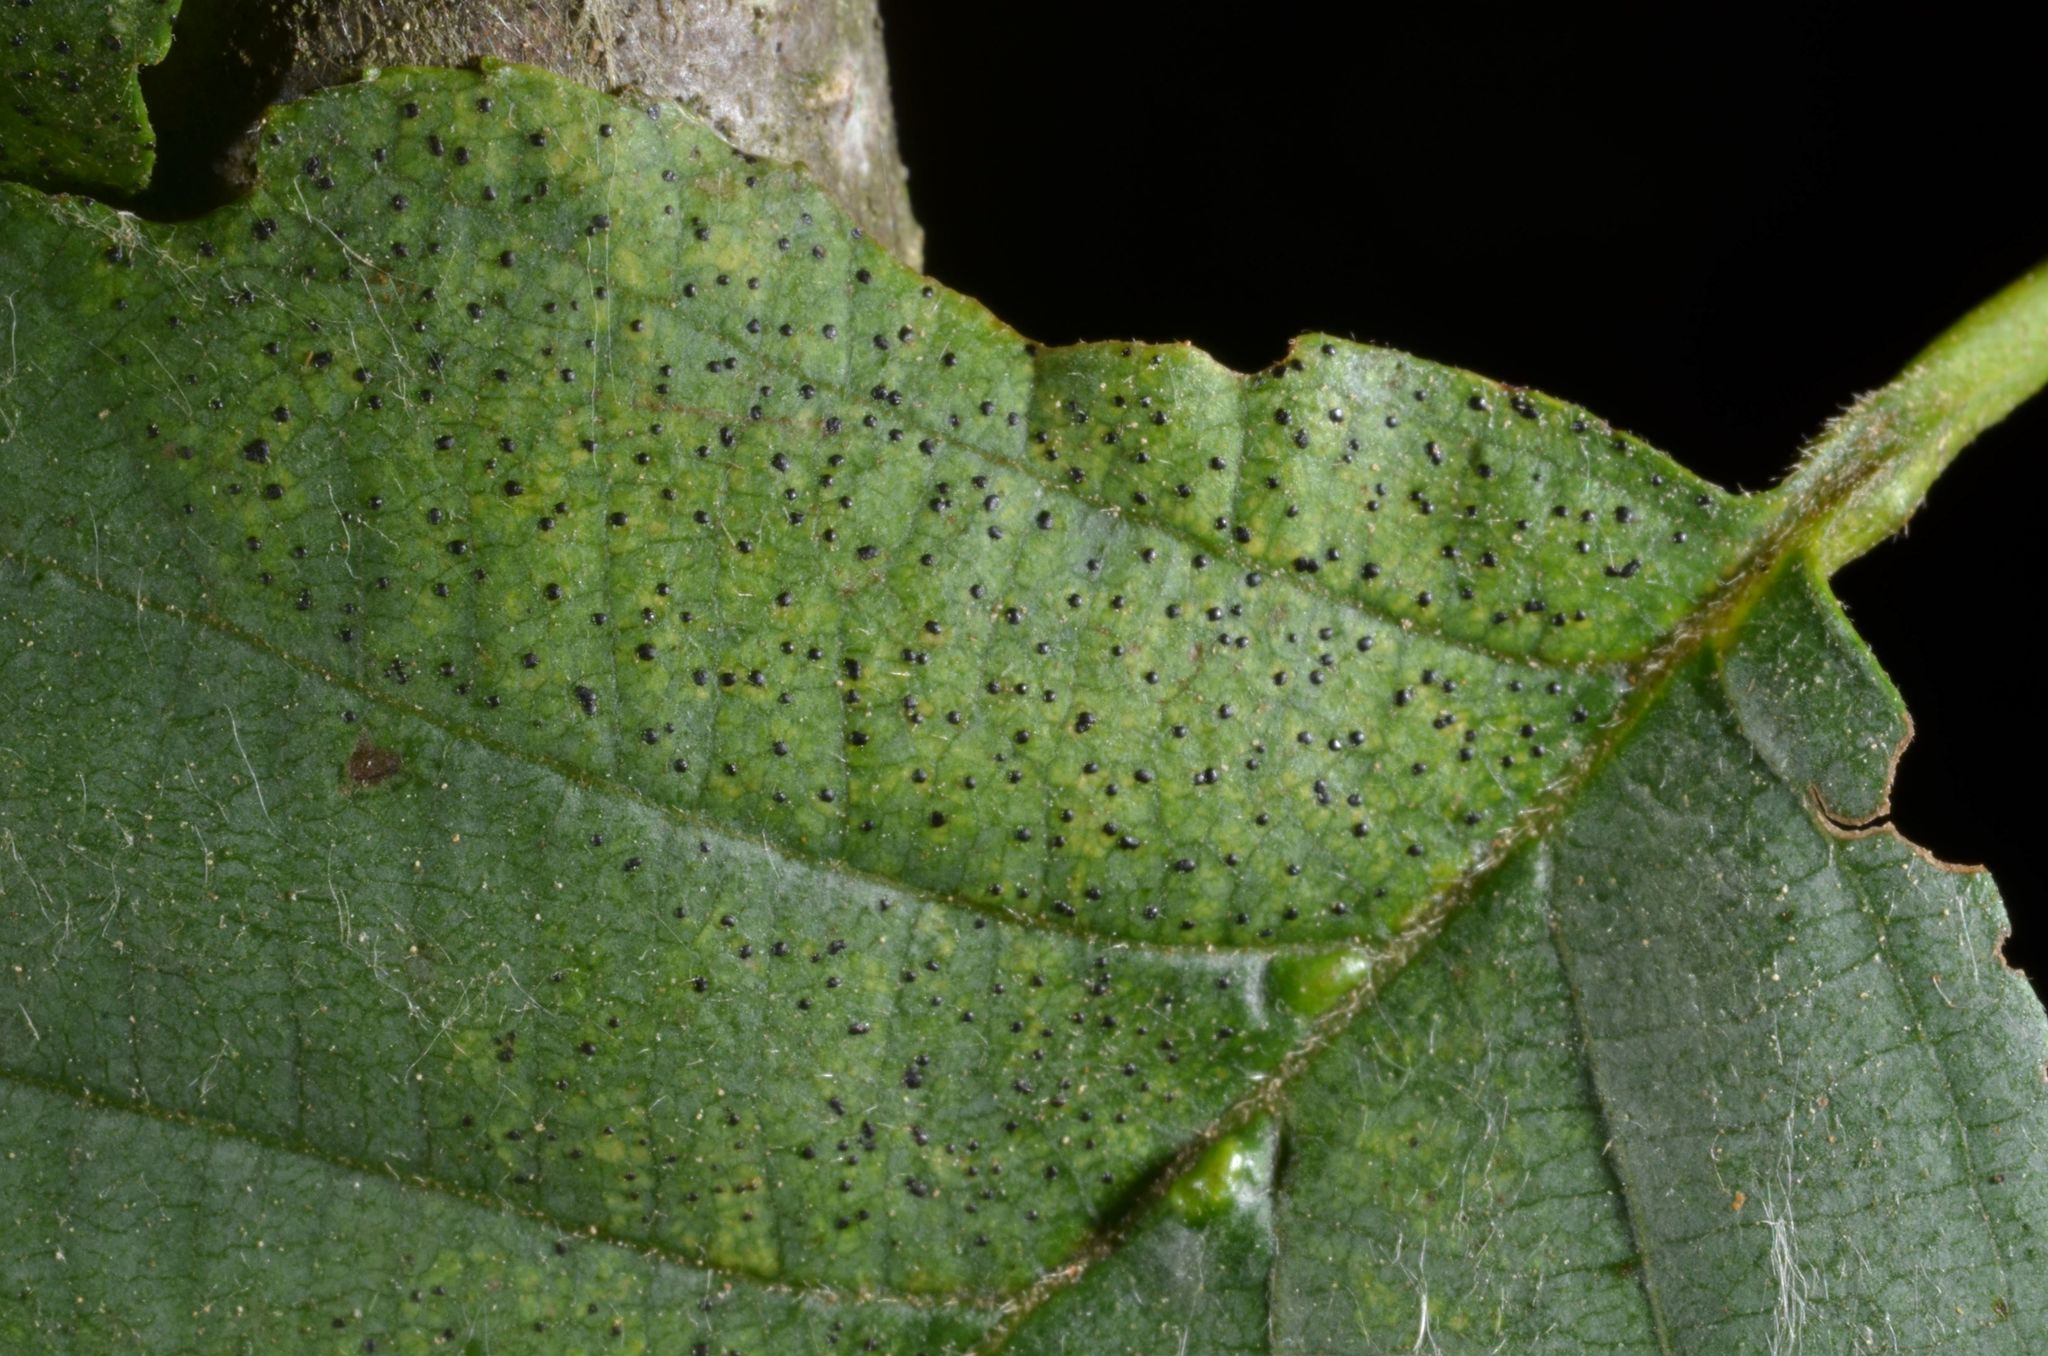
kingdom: Fungi
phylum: Ascomycota
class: Dothideomycetes
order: Pleosporales
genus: Leptothyrium
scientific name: Leptothyrium alneum
